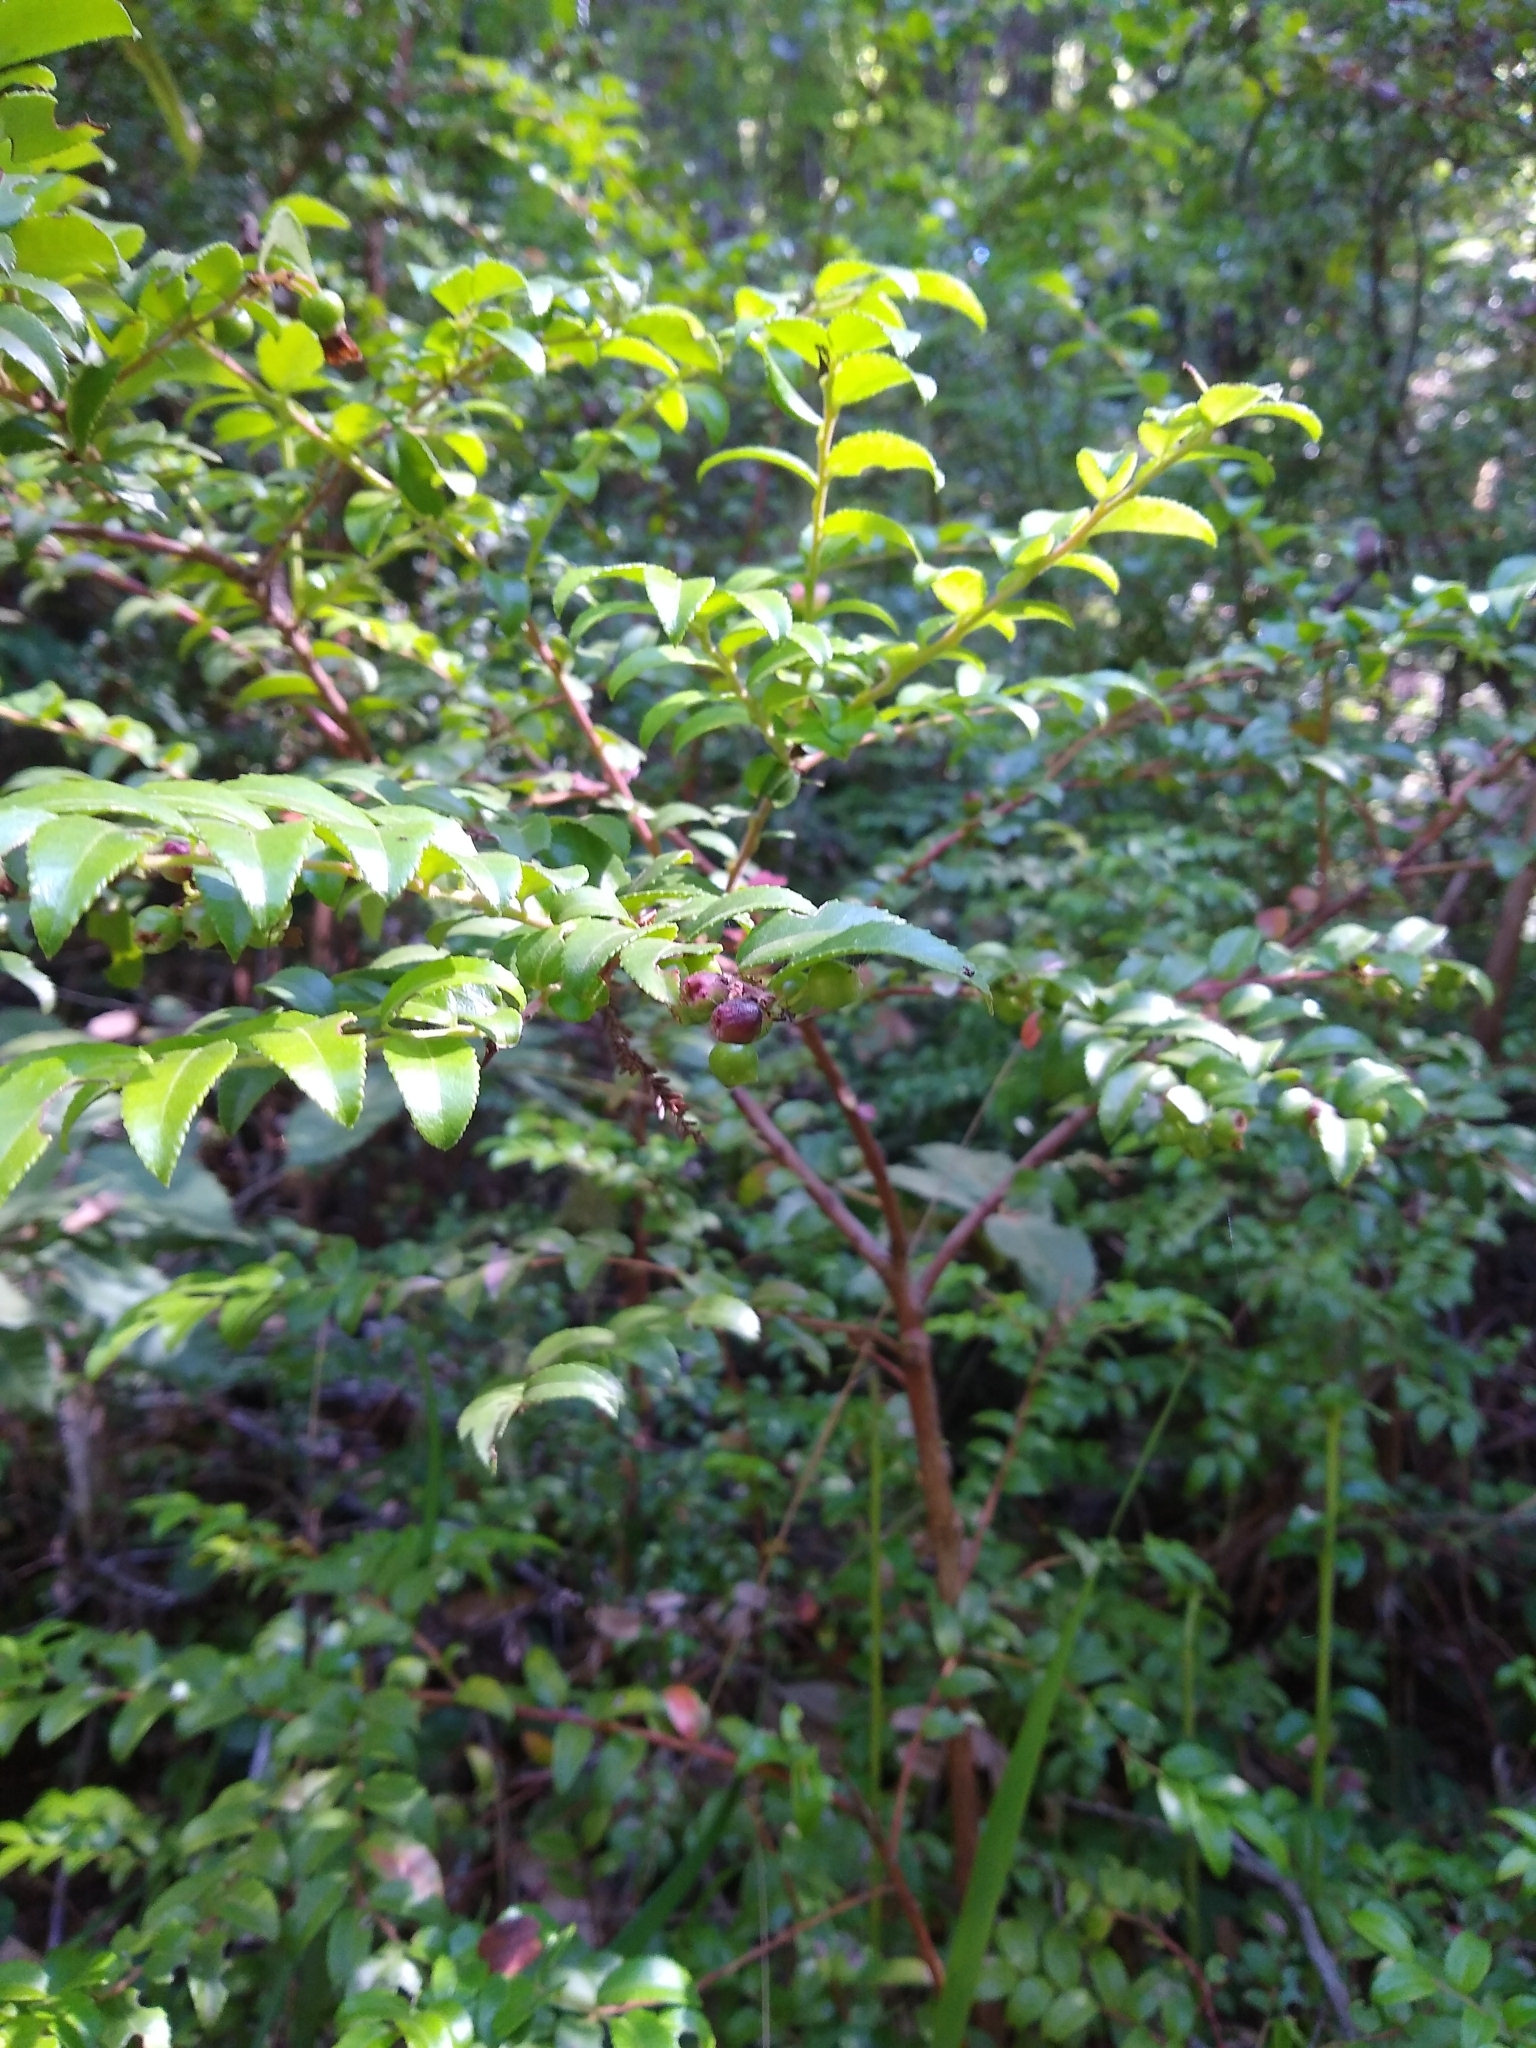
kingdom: Plantae
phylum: Tracheophyta
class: Magnoliopsida
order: Ericales
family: Ericaceae
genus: Vaccinium
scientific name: Vaccinium ovatum
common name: California-huckleberry
